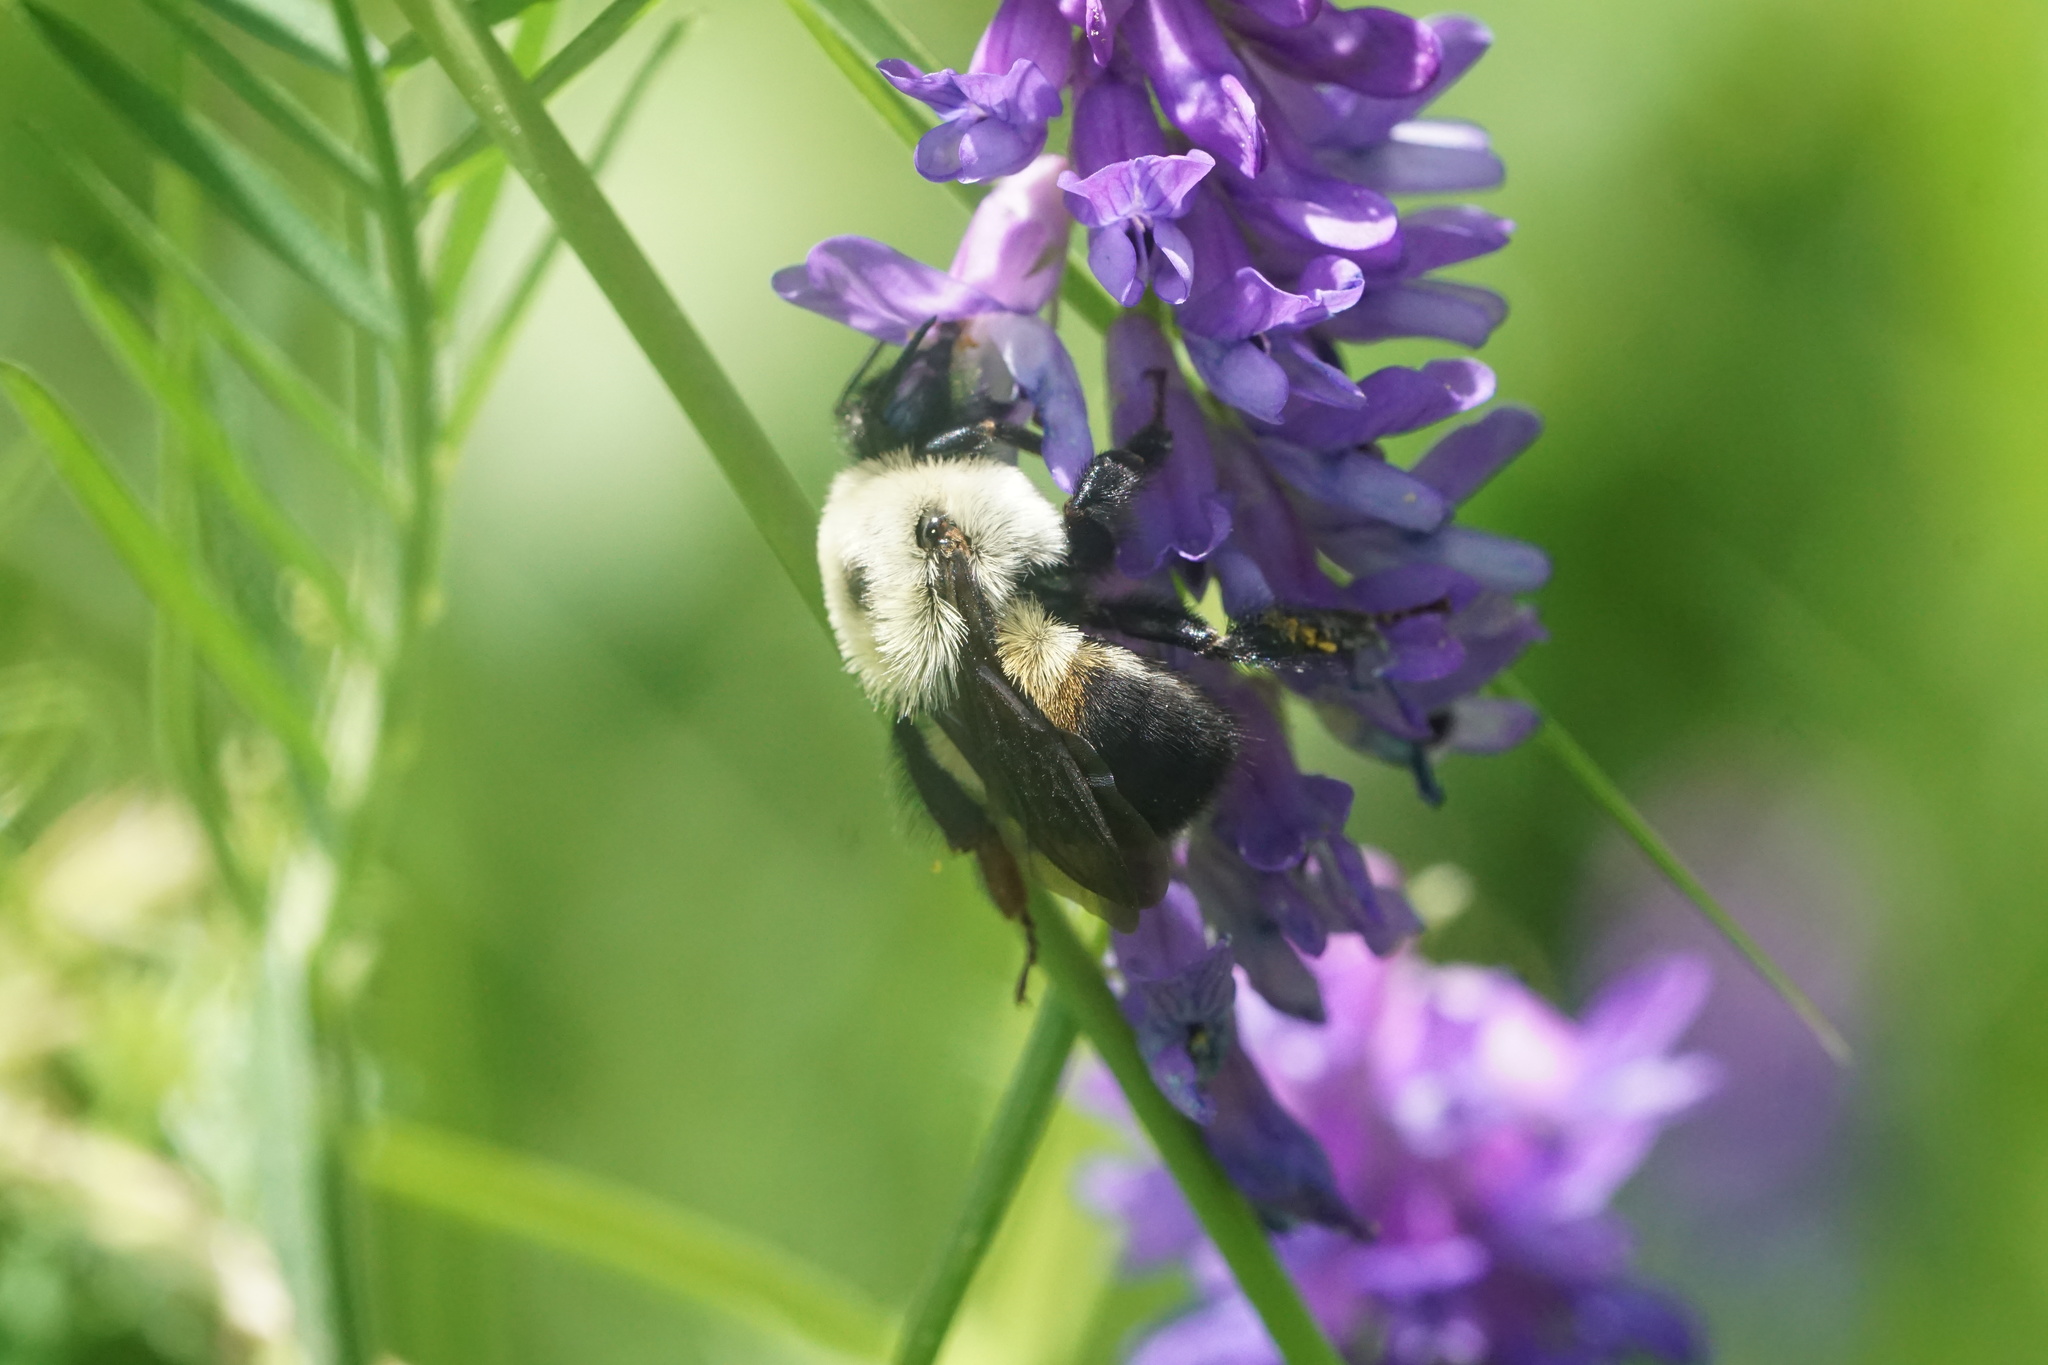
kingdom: Animalia
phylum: Arthropoda
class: Insecta
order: Hymenoptera
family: Apidae
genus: Bombus
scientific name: Bombus griseocollis
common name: Brown-belted bumble bee
